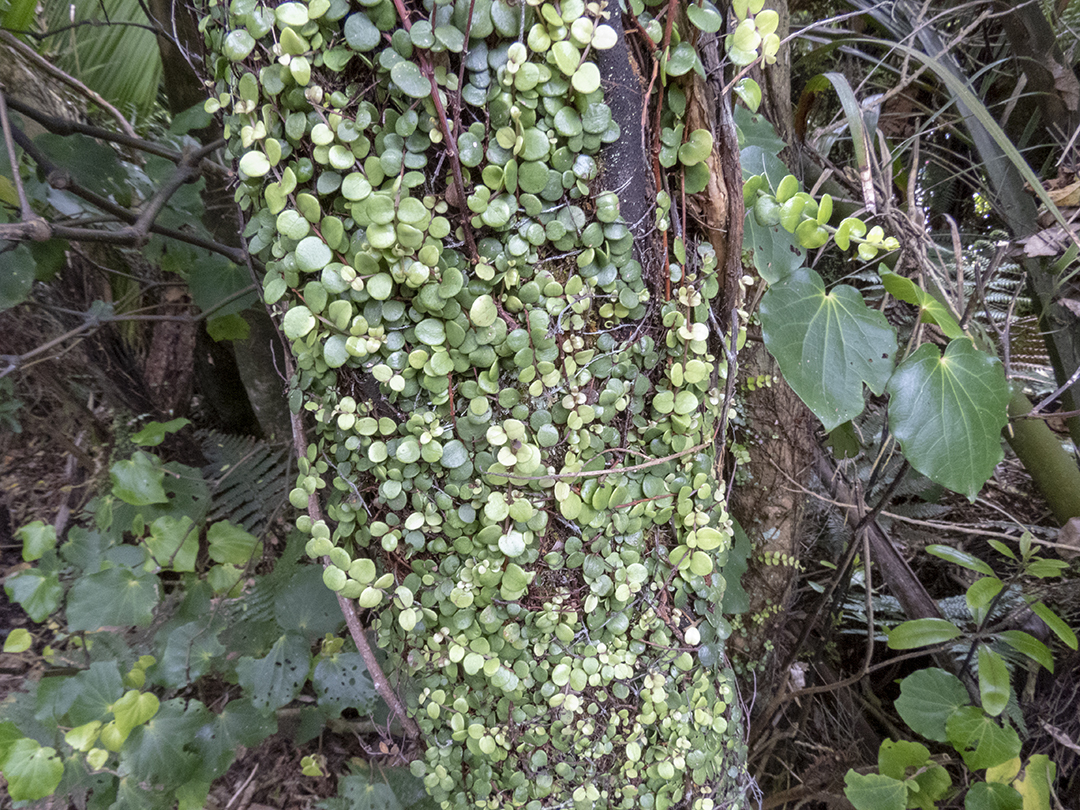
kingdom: Plantae
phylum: Tracheophyta
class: Magnoliopsida
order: Myrtales
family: Myrtaceae
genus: Metrosideros
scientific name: Metrosideros perforata
